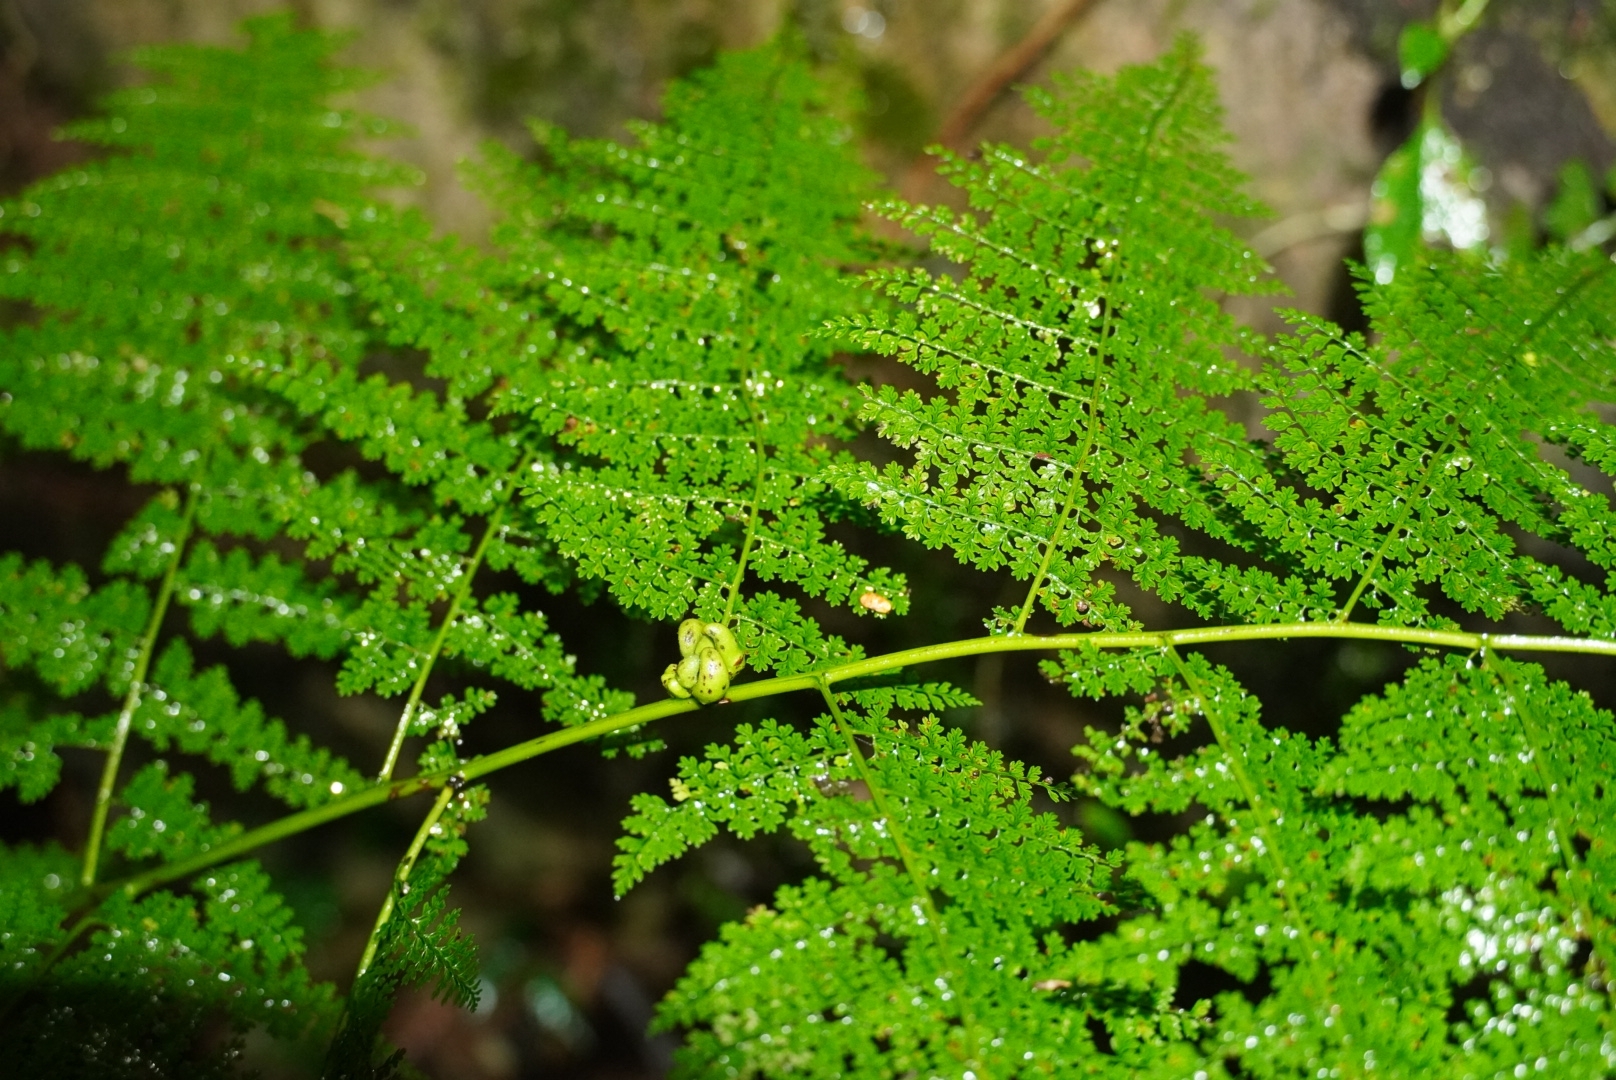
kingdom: Plantae
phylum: Tracheophyta
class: Polypodiopsida
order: Polypodiales
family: Dennstaedtiaceae
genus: Monachosorum
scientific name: Monachosorum henryi
